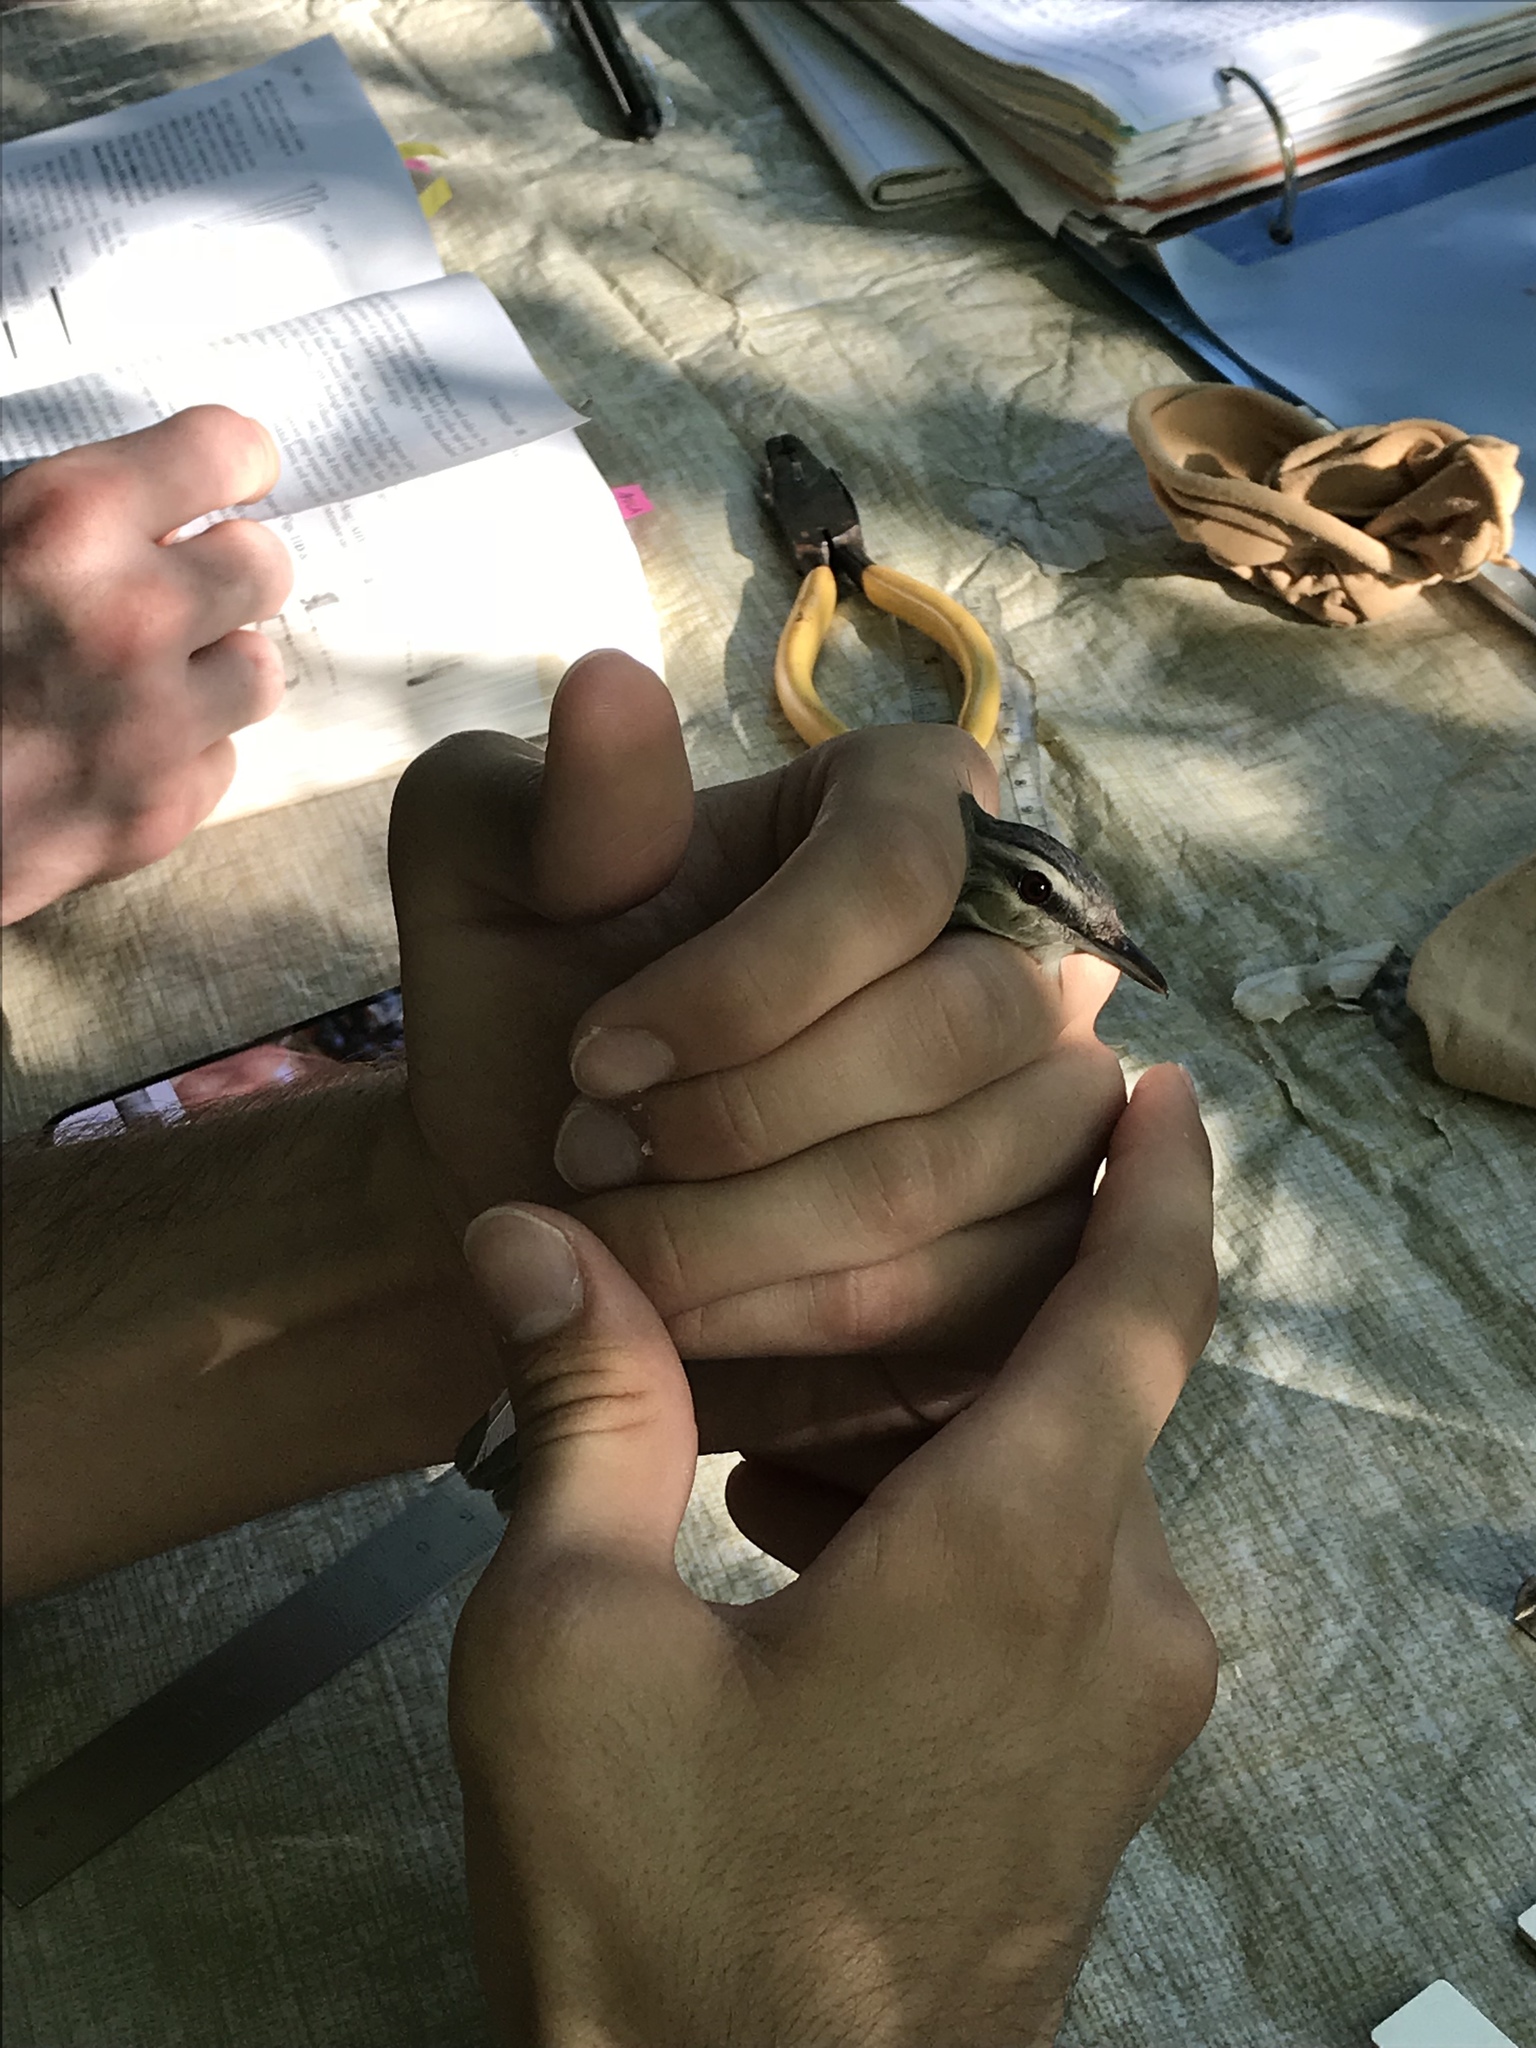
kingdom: Animalia
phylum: Chordata
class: Aves
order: Passeriformes
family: Vireonidae
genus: Vireo
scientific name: Vireo olivaceus
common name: Red-eyed vireo
